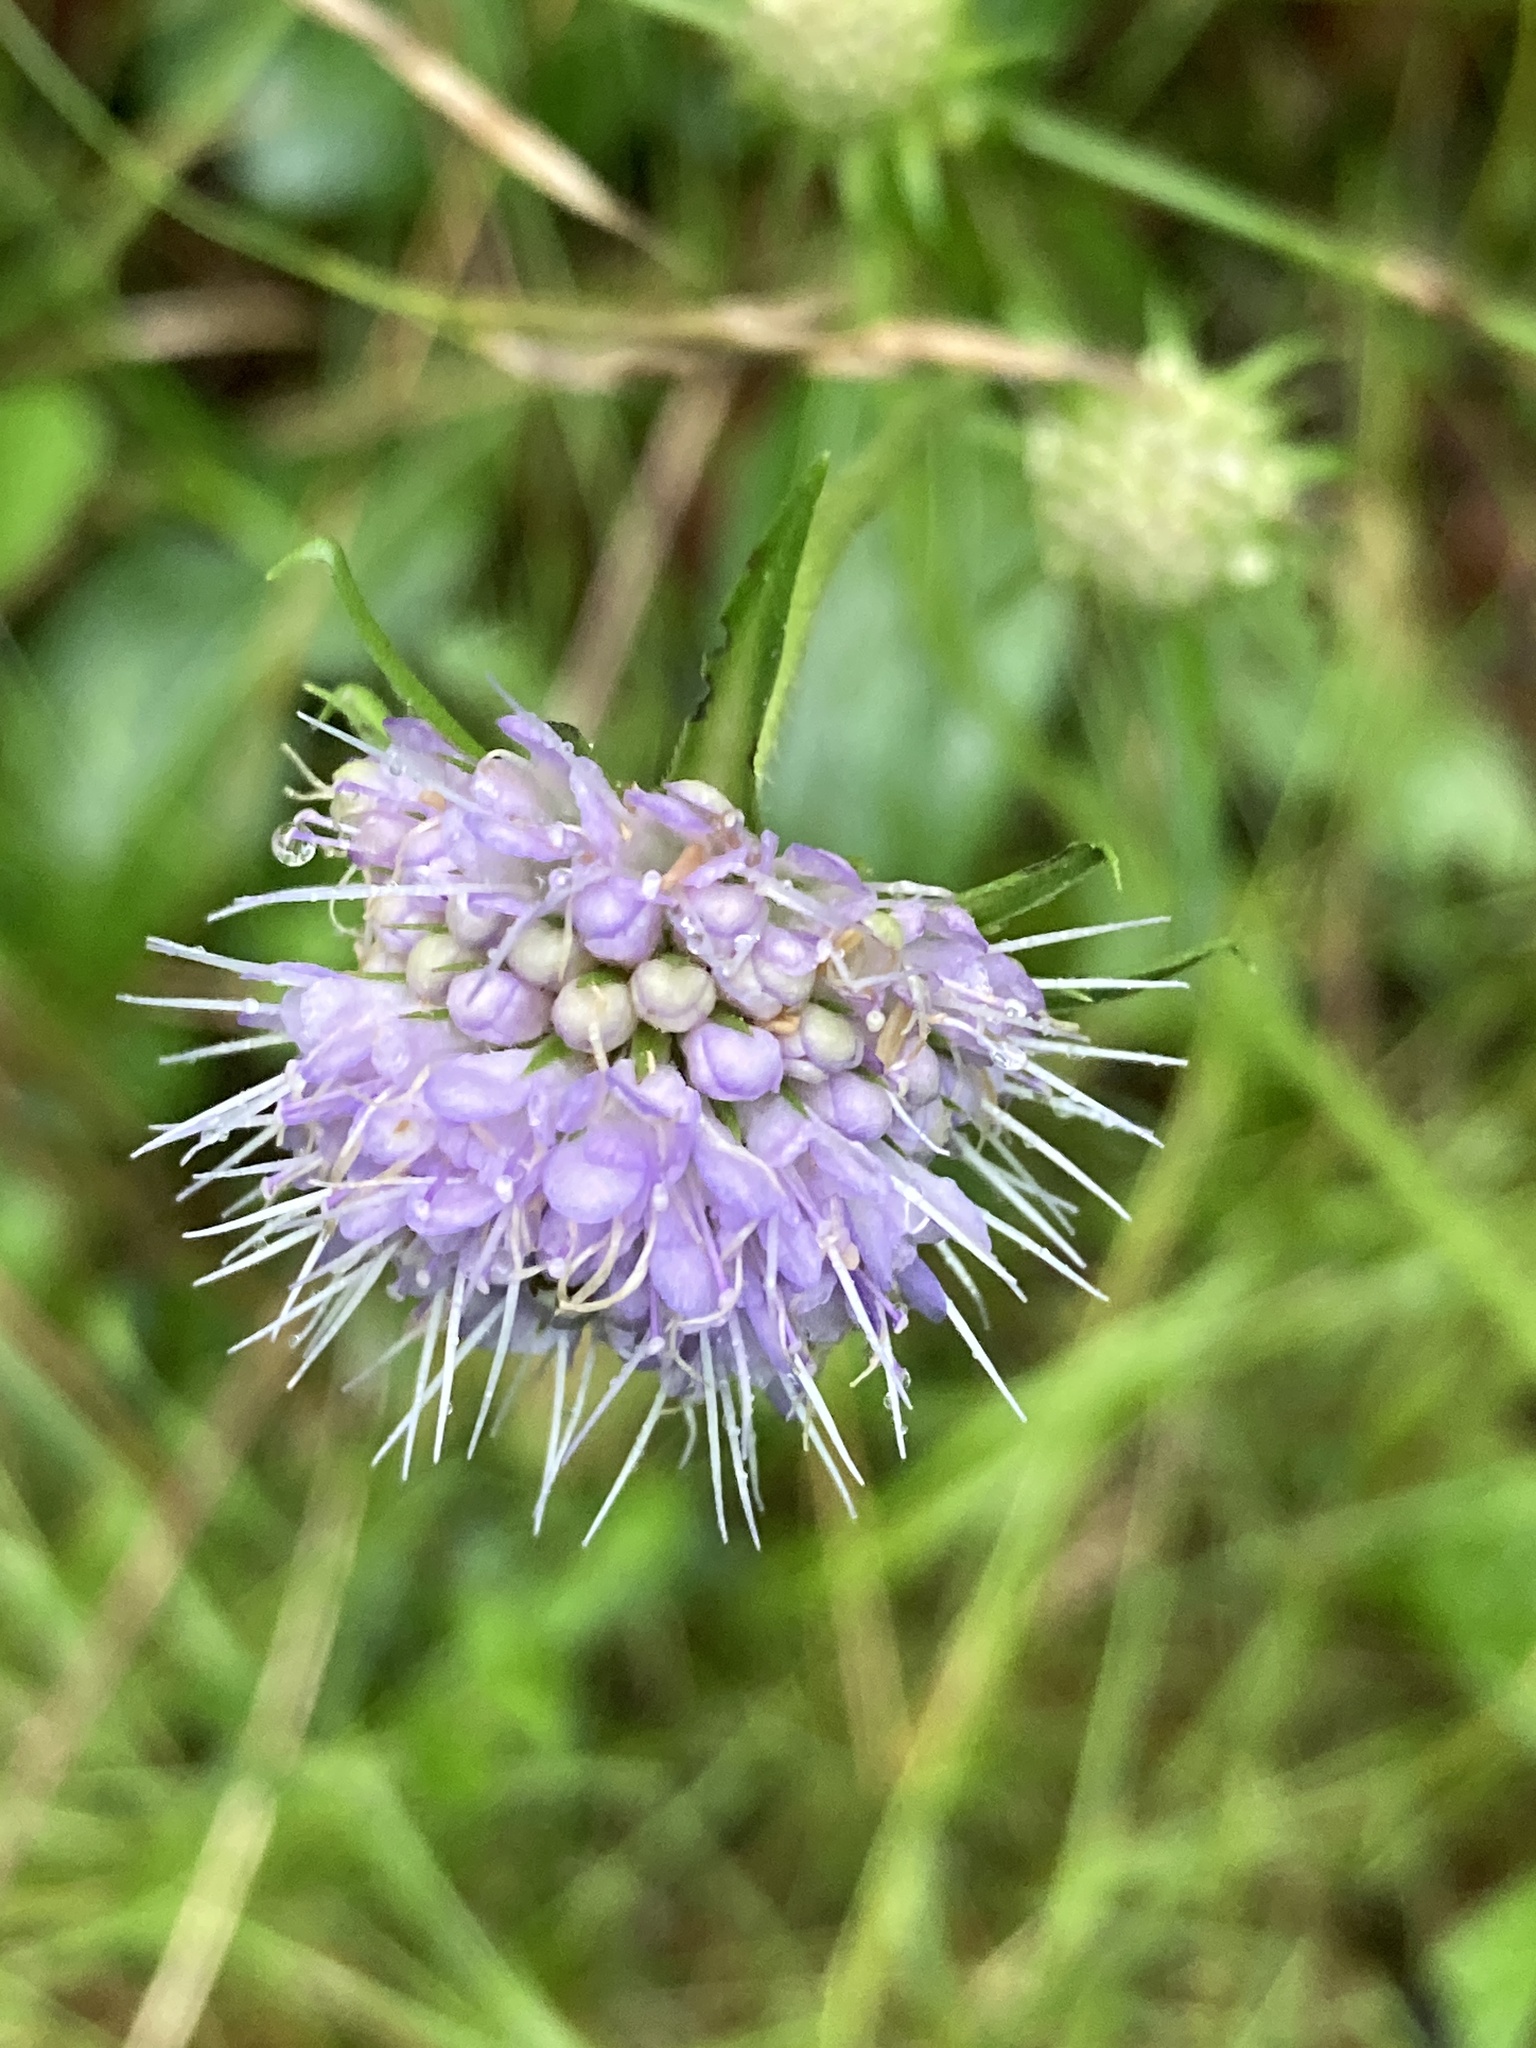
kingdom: Plantae
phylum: Tracheophyta
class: Magnoliopsida
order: Dipsacales
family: Caprifoliaceae
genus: Succisa
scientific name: Succisa pratensis
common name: Devil's-bit
